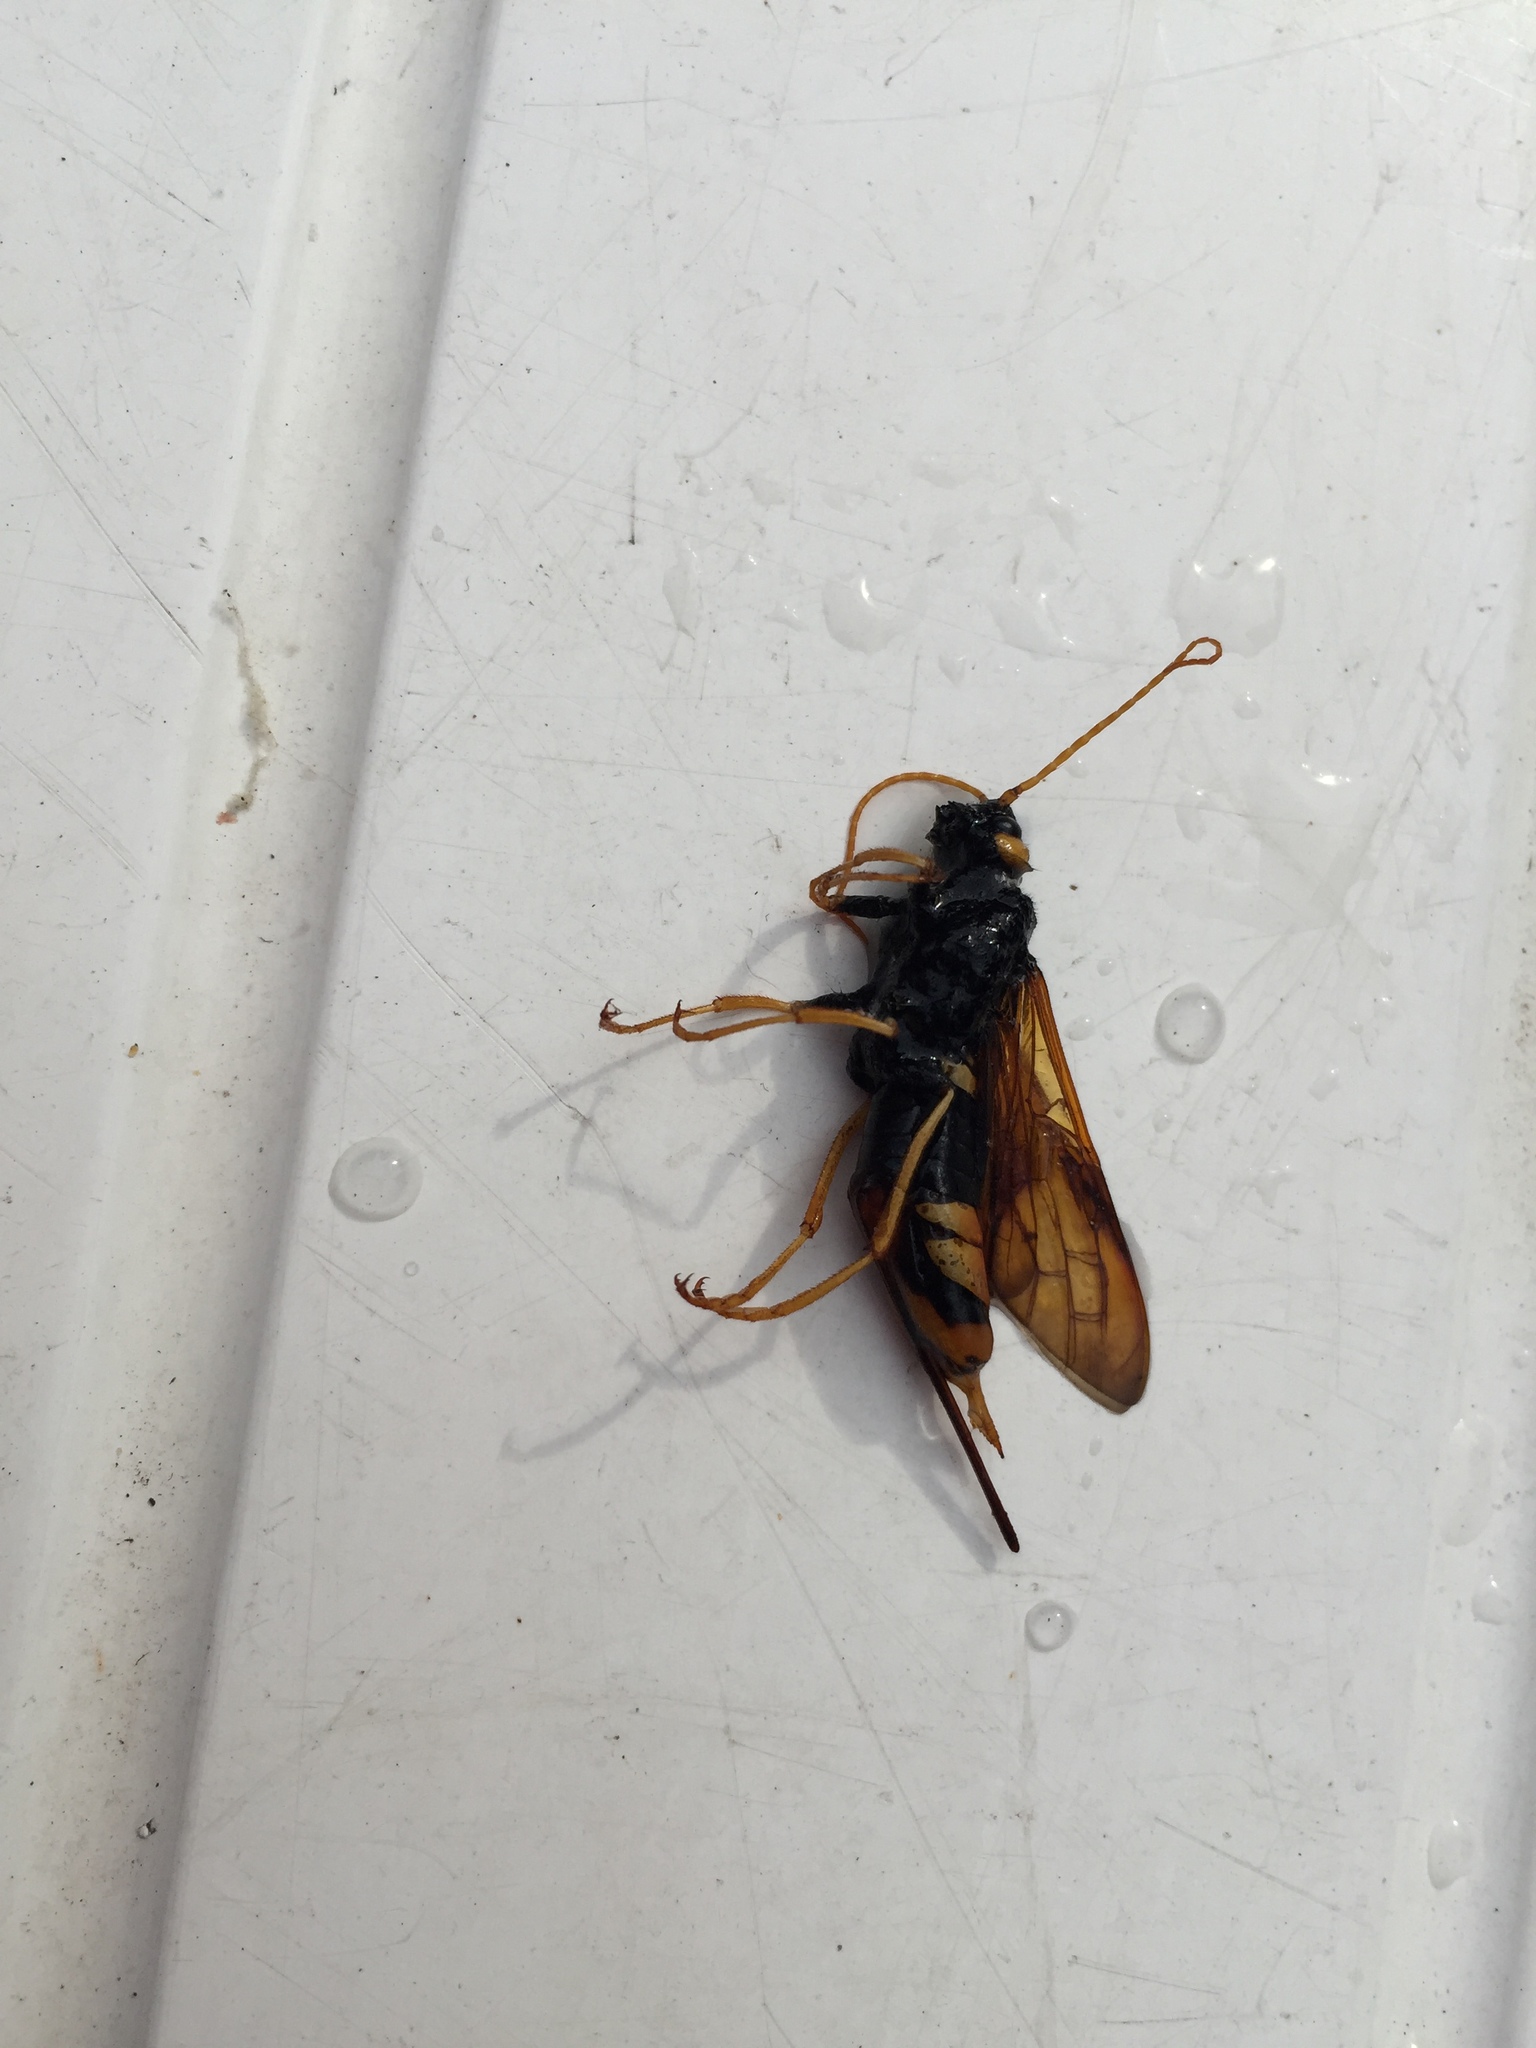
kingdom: Animalia
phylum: Arthropoda
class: Insecta
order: Hymenoptera
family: Siricidae
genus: Urocerus
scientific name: Urocerus gigas
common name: Giant woodwasp
